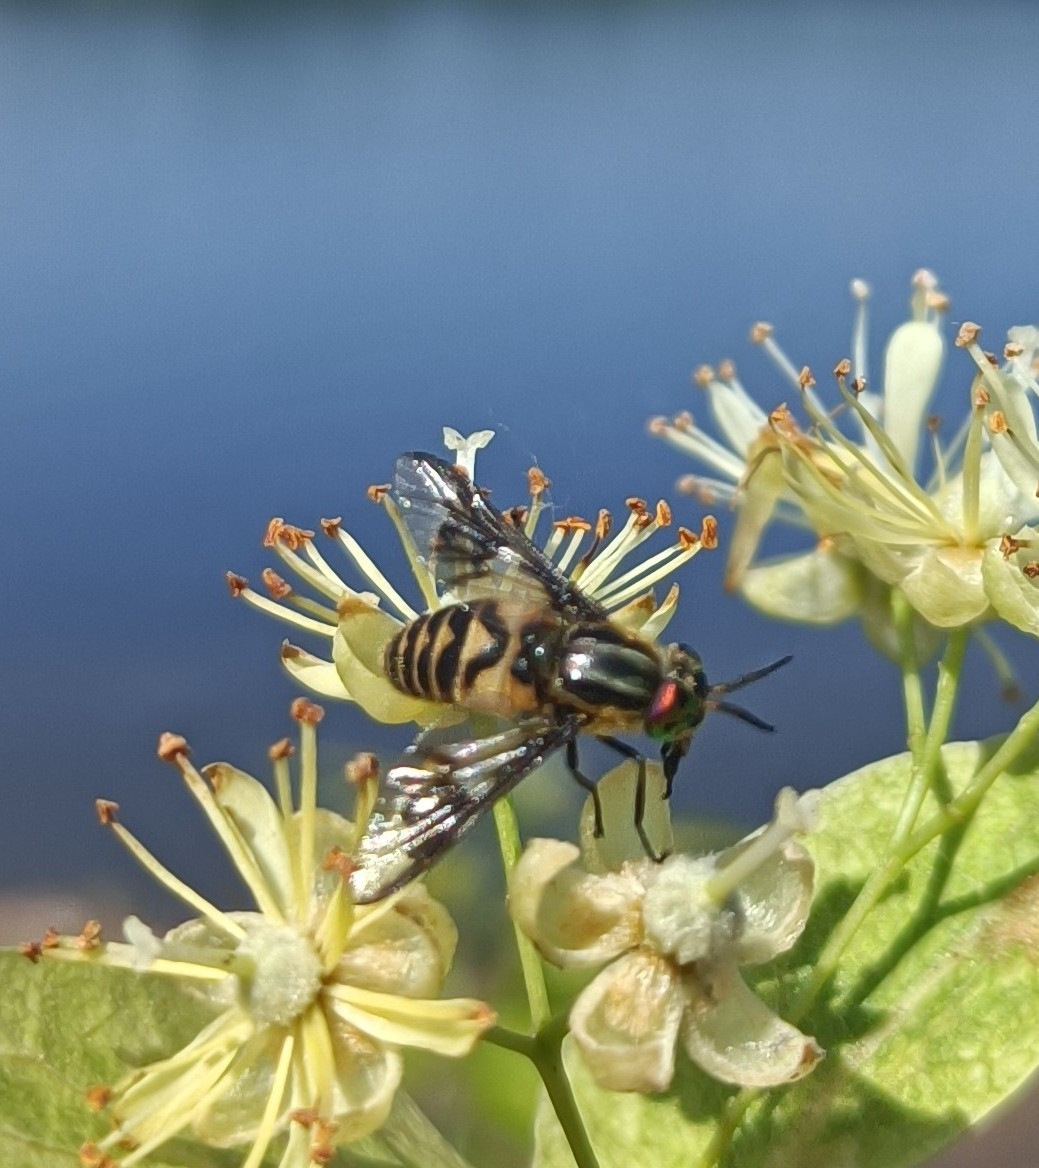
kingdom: Animalia
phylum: Arthropoda
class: Insecta
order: Diptera
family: Tabanidae
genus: Chrysops
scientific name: Chrysops divaricatus
